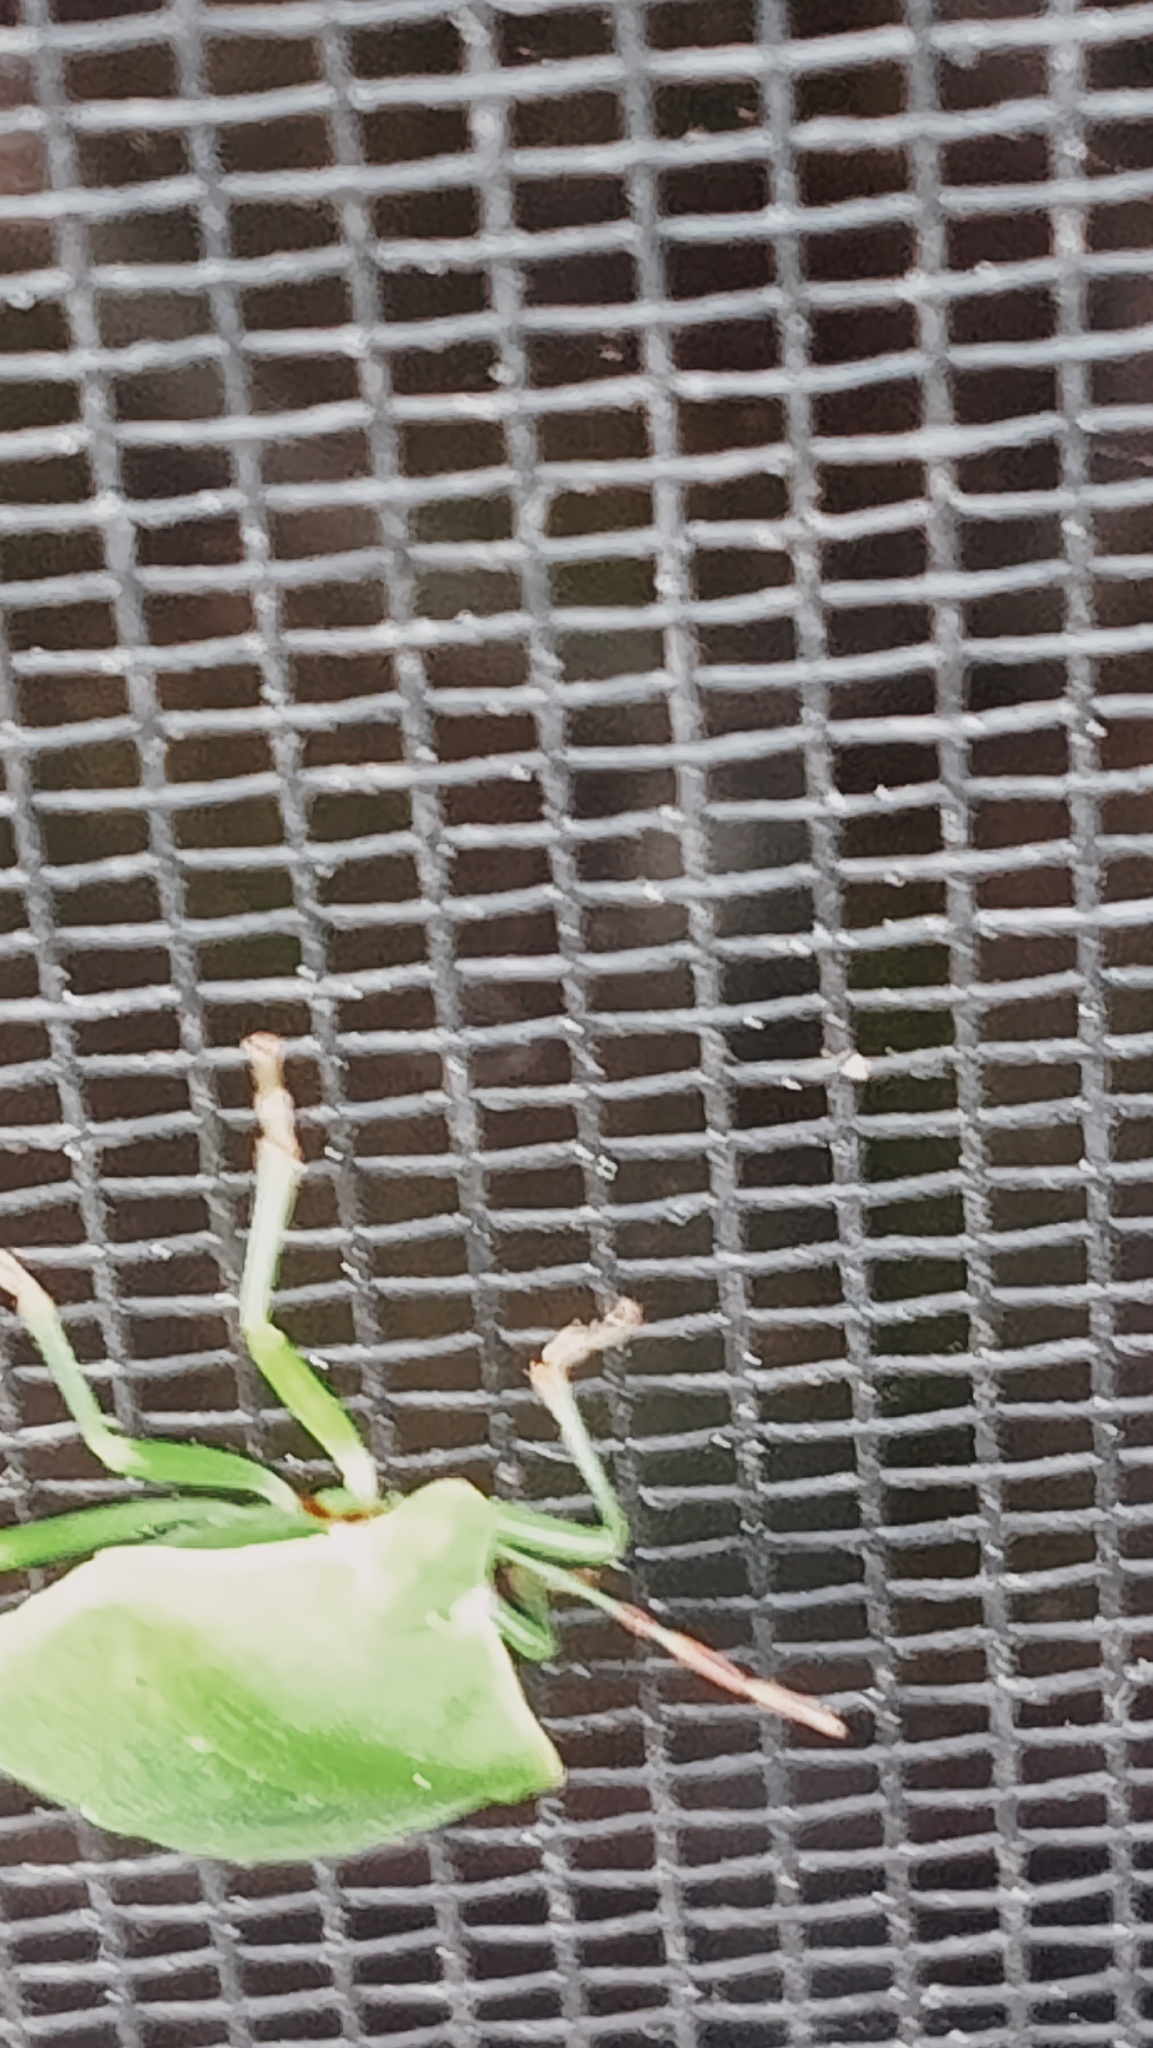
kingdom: Animalia
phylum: Arthropoda
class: Insecta
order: Hemiptera
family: Pentatomidae
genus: Nezara
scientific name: Nezara viridula
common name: Southern green stink bug
